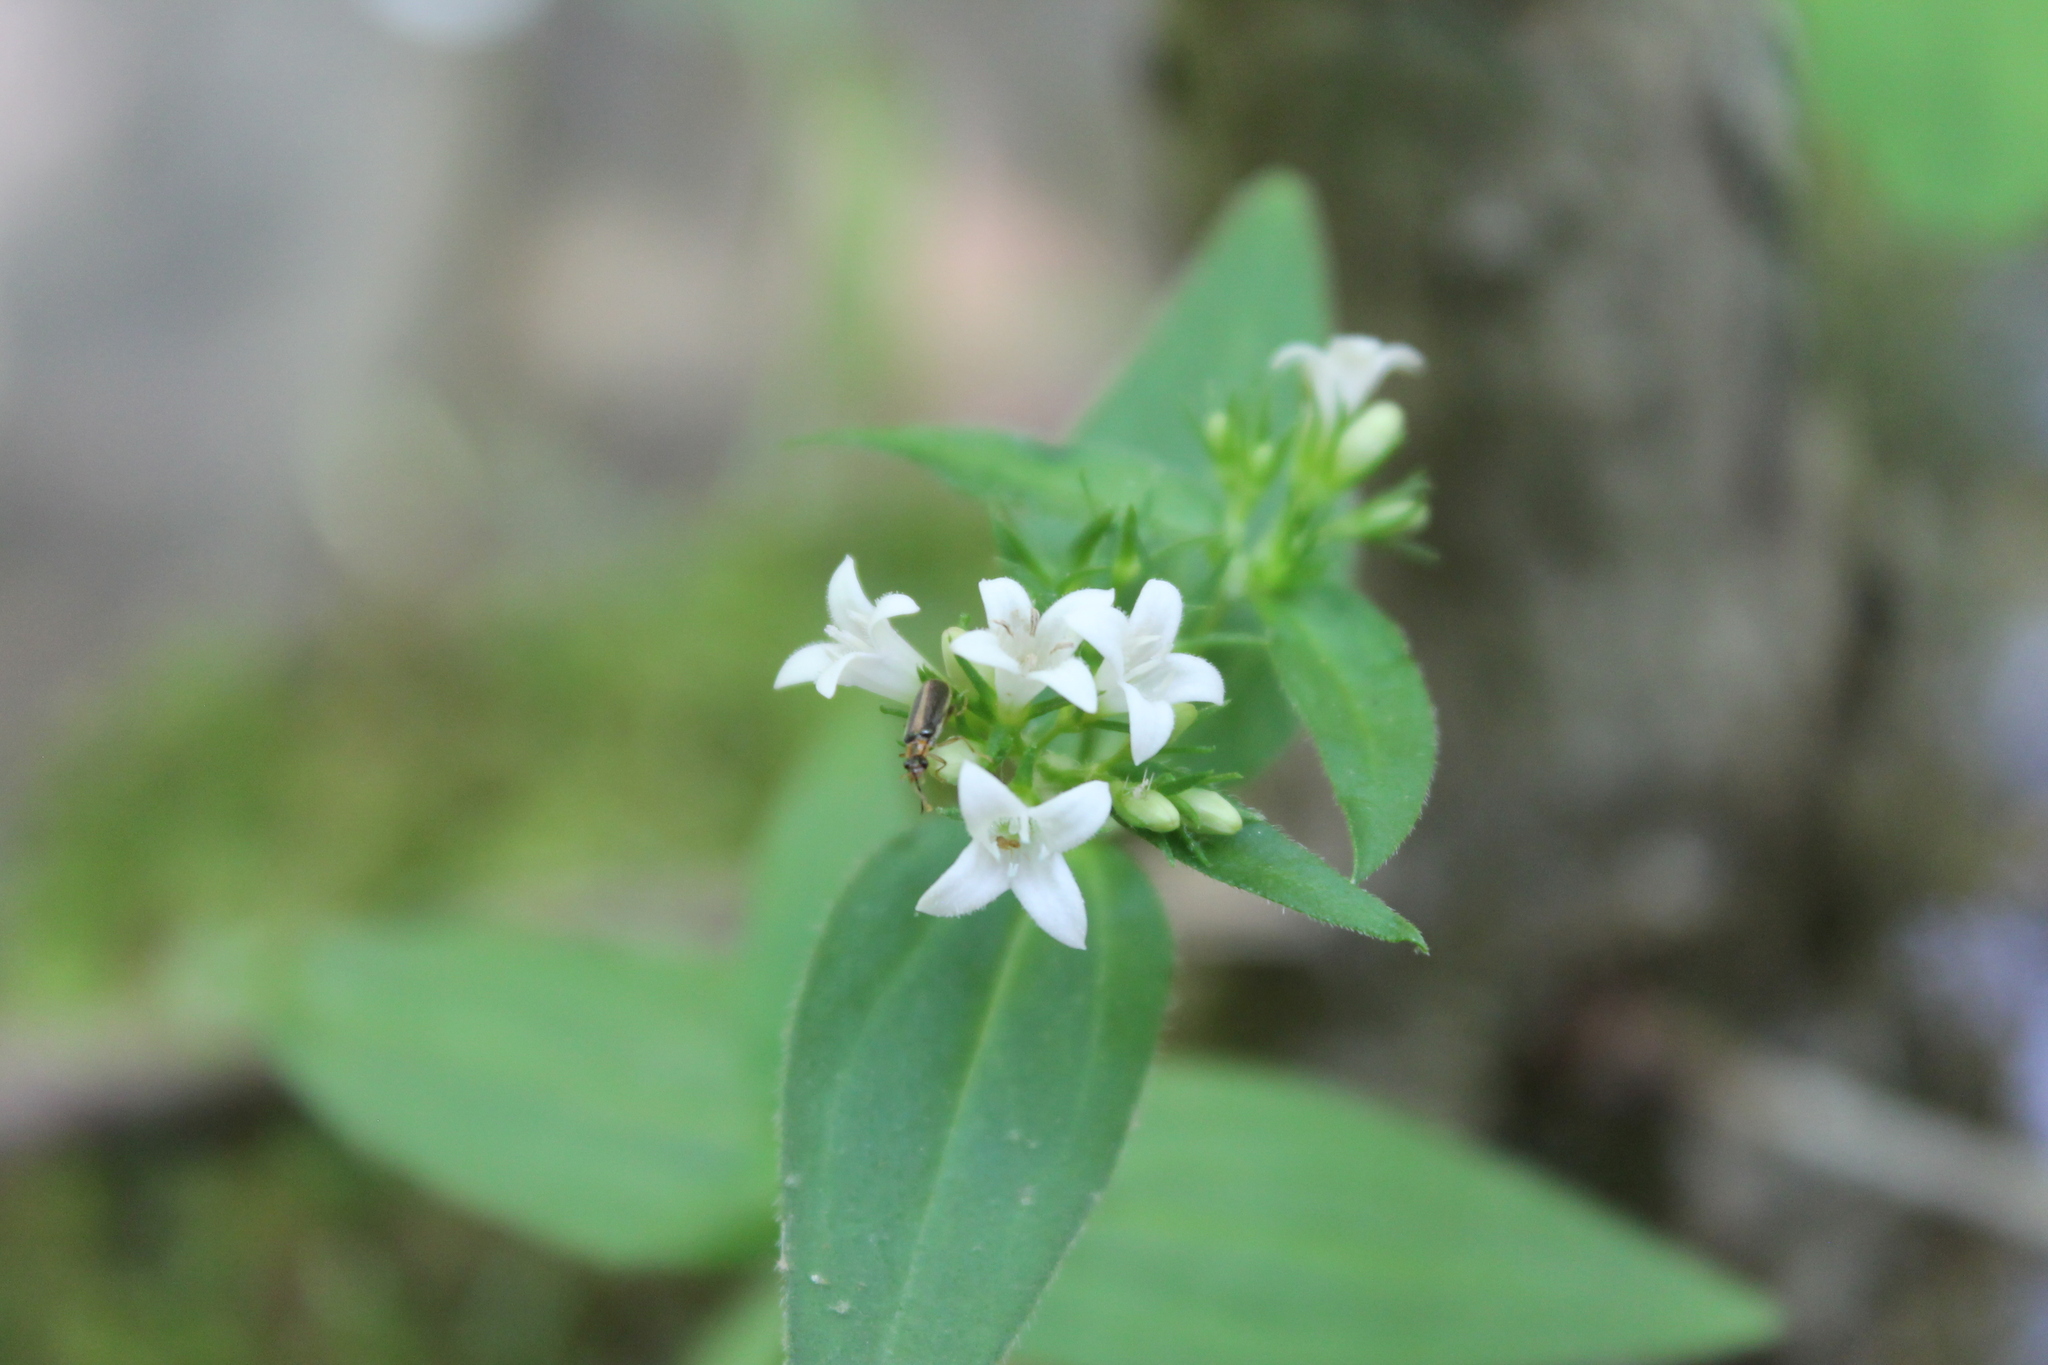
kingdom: Plantae
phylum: Tracheophyta
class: Magnoliopsida
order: Gentianales
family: Rubiaceae
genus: Houstonia
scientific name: Houstonia purpurea
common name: Summer bluet
